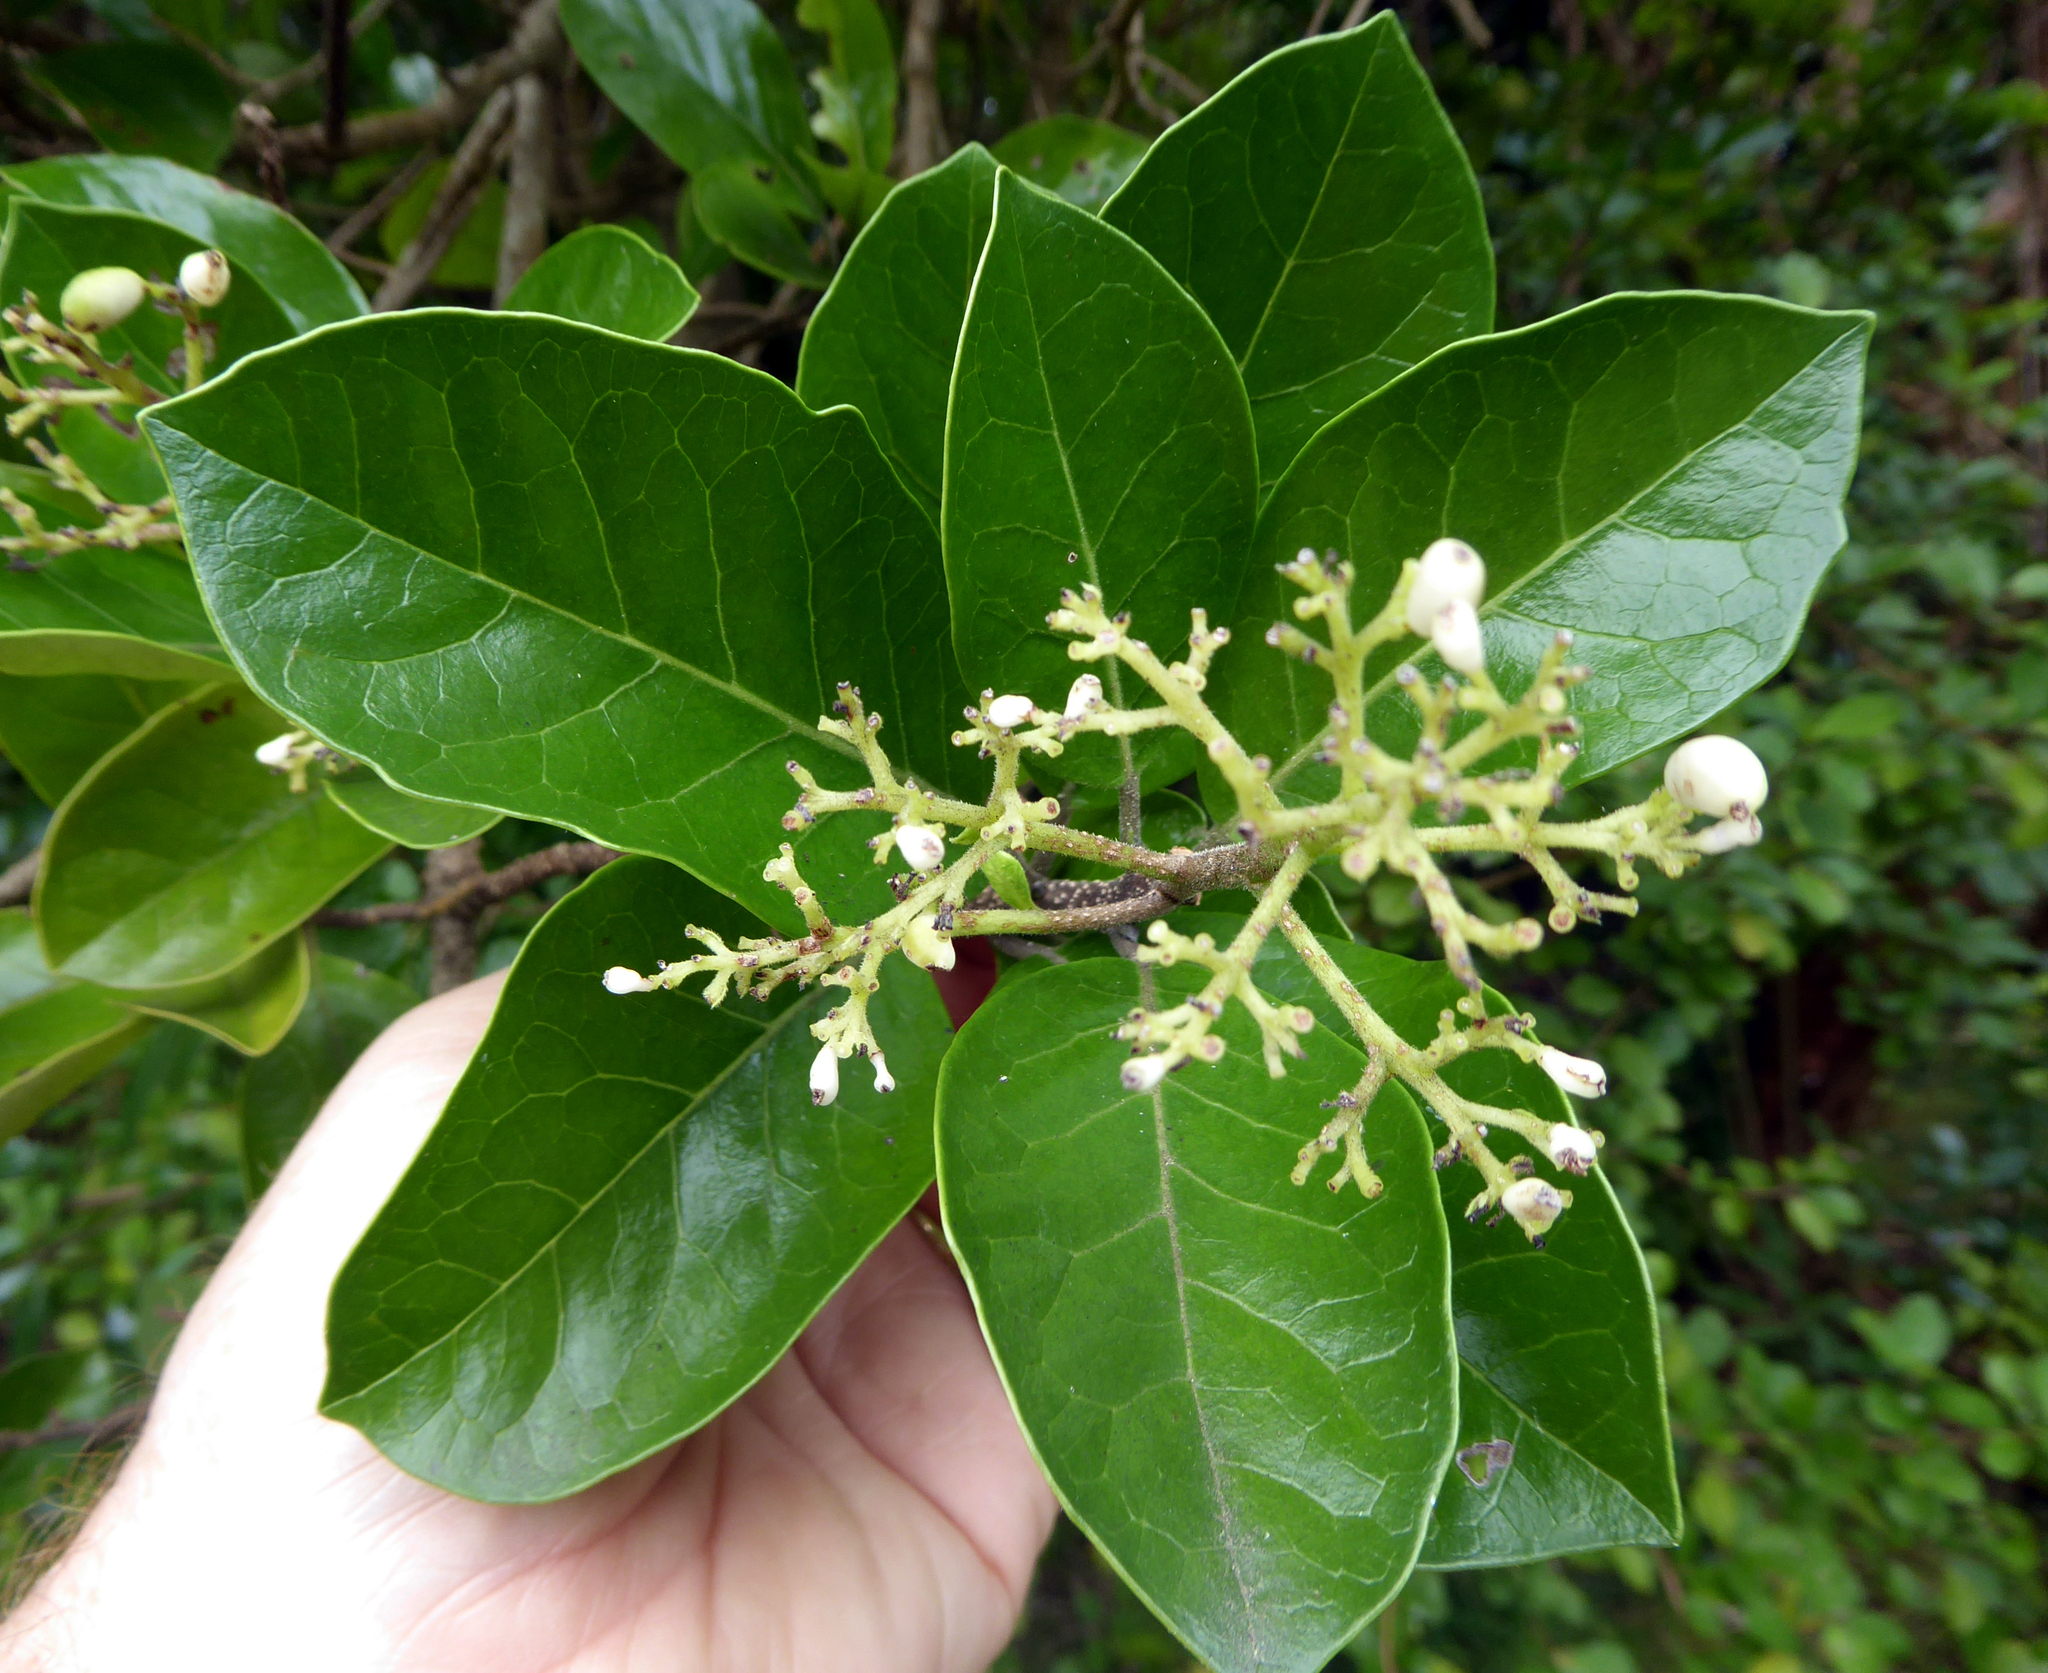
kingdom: Plantae
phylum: Tracheophyta
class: Magnoliopsida
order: Apiales
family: Pennantiaceae
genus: Pennantia
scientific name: Pennantia
